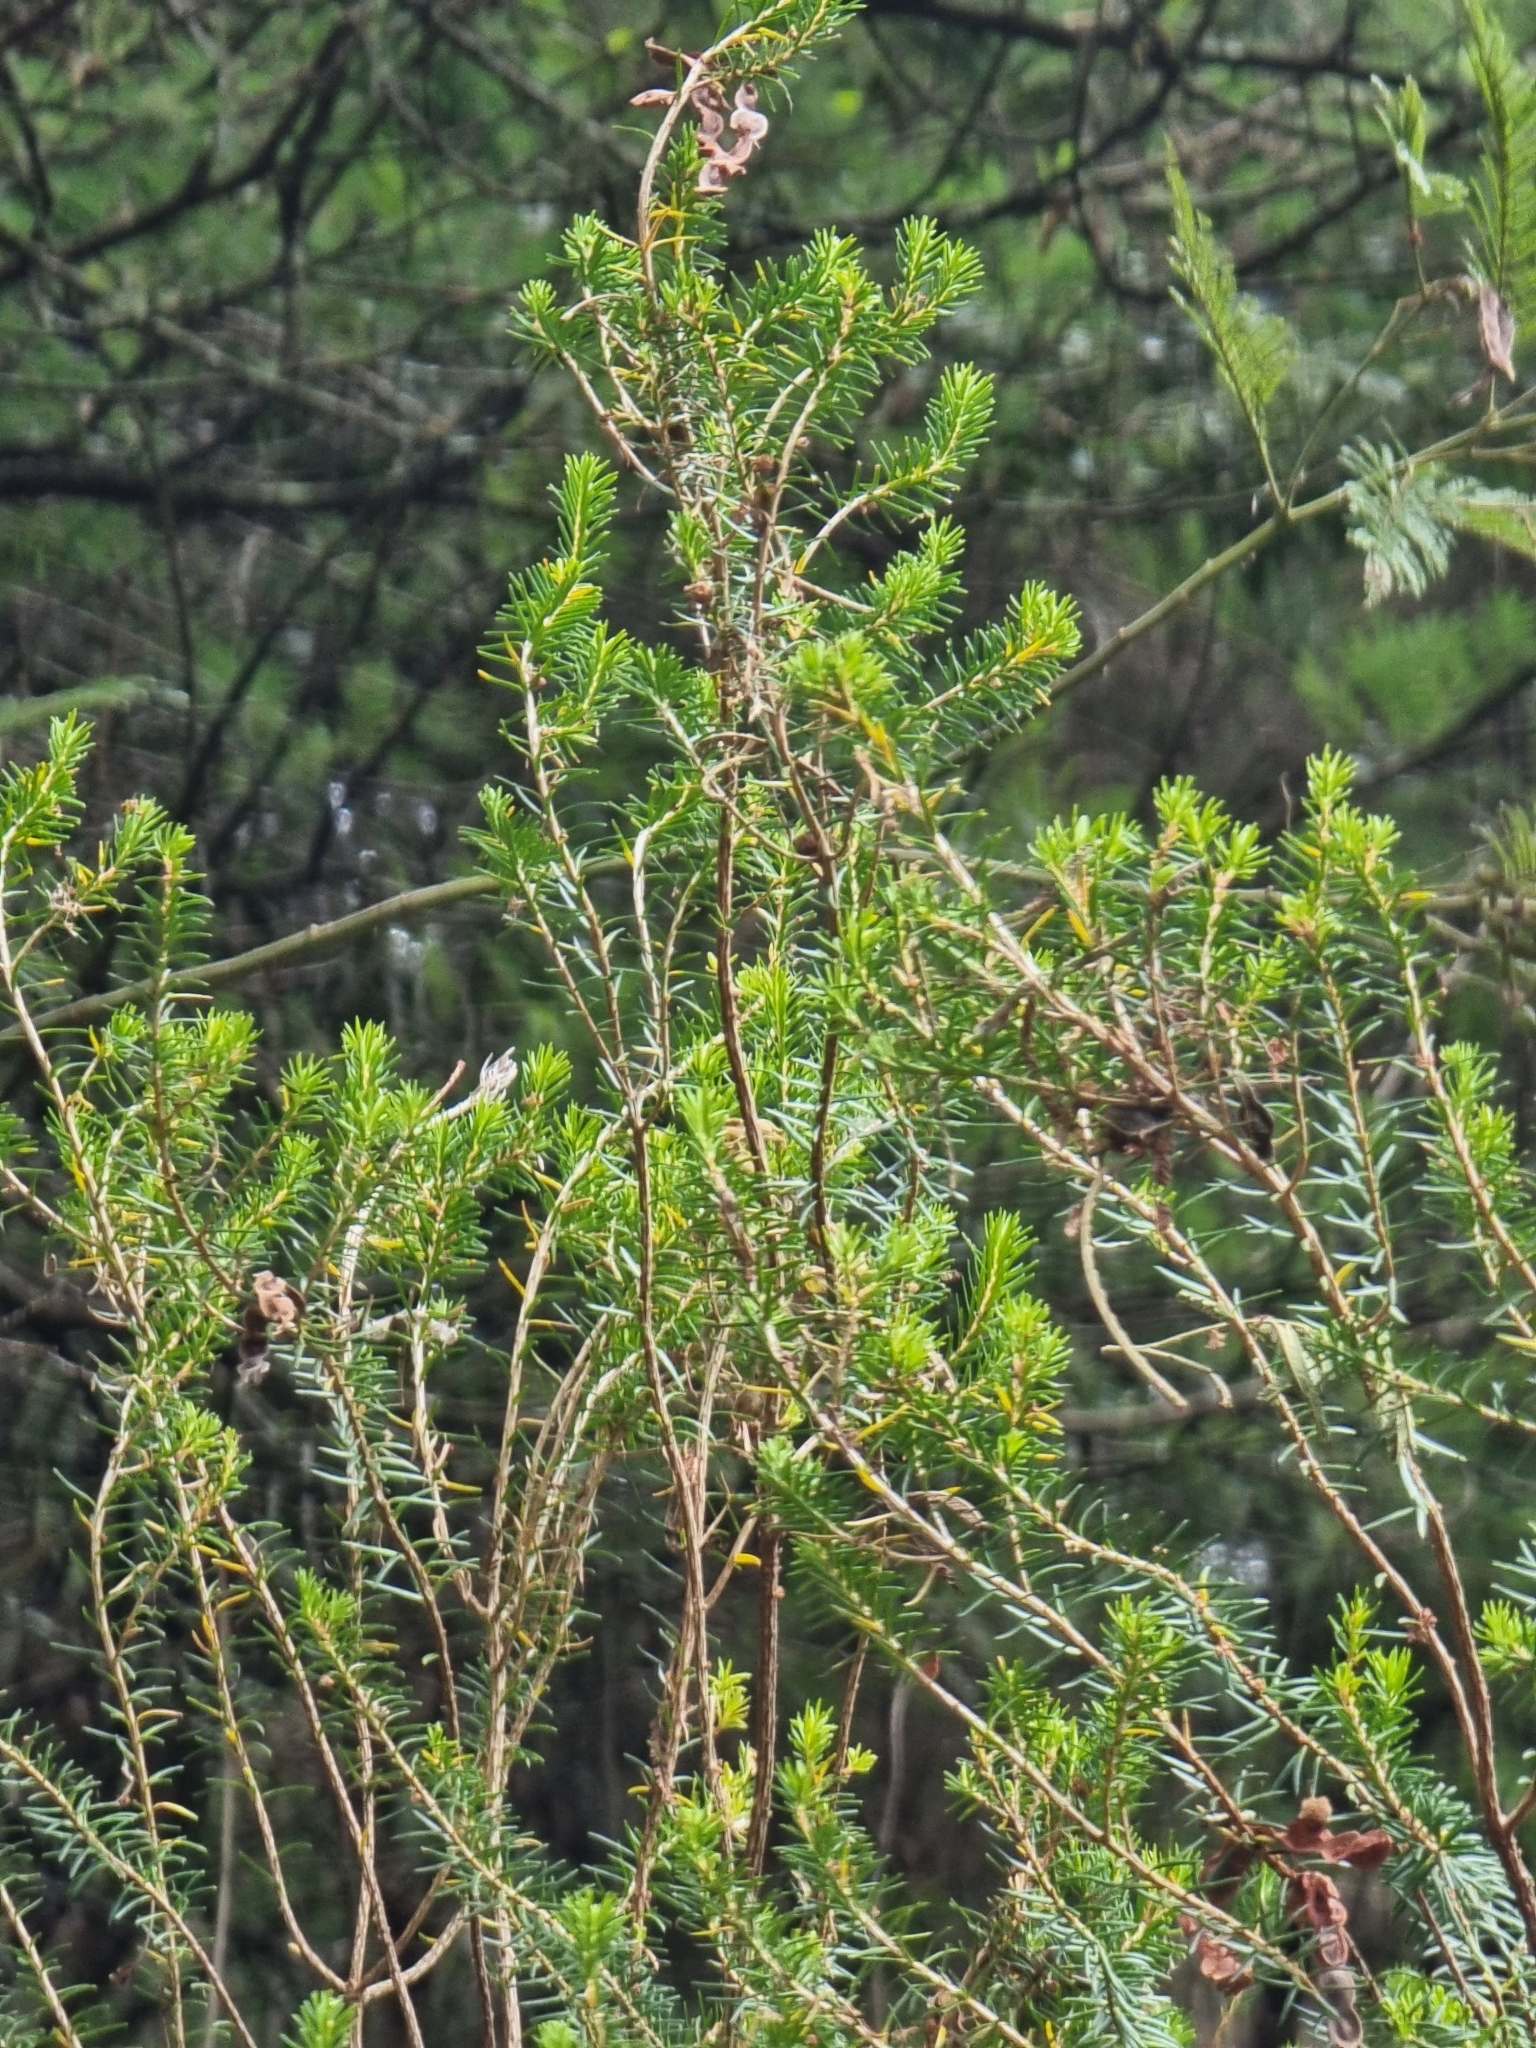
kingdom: Plantae
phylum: Tracheophyta
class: Magnoliopsida
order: Ericales
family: Ericaceae
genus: Erica
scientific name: Erica platycodon
